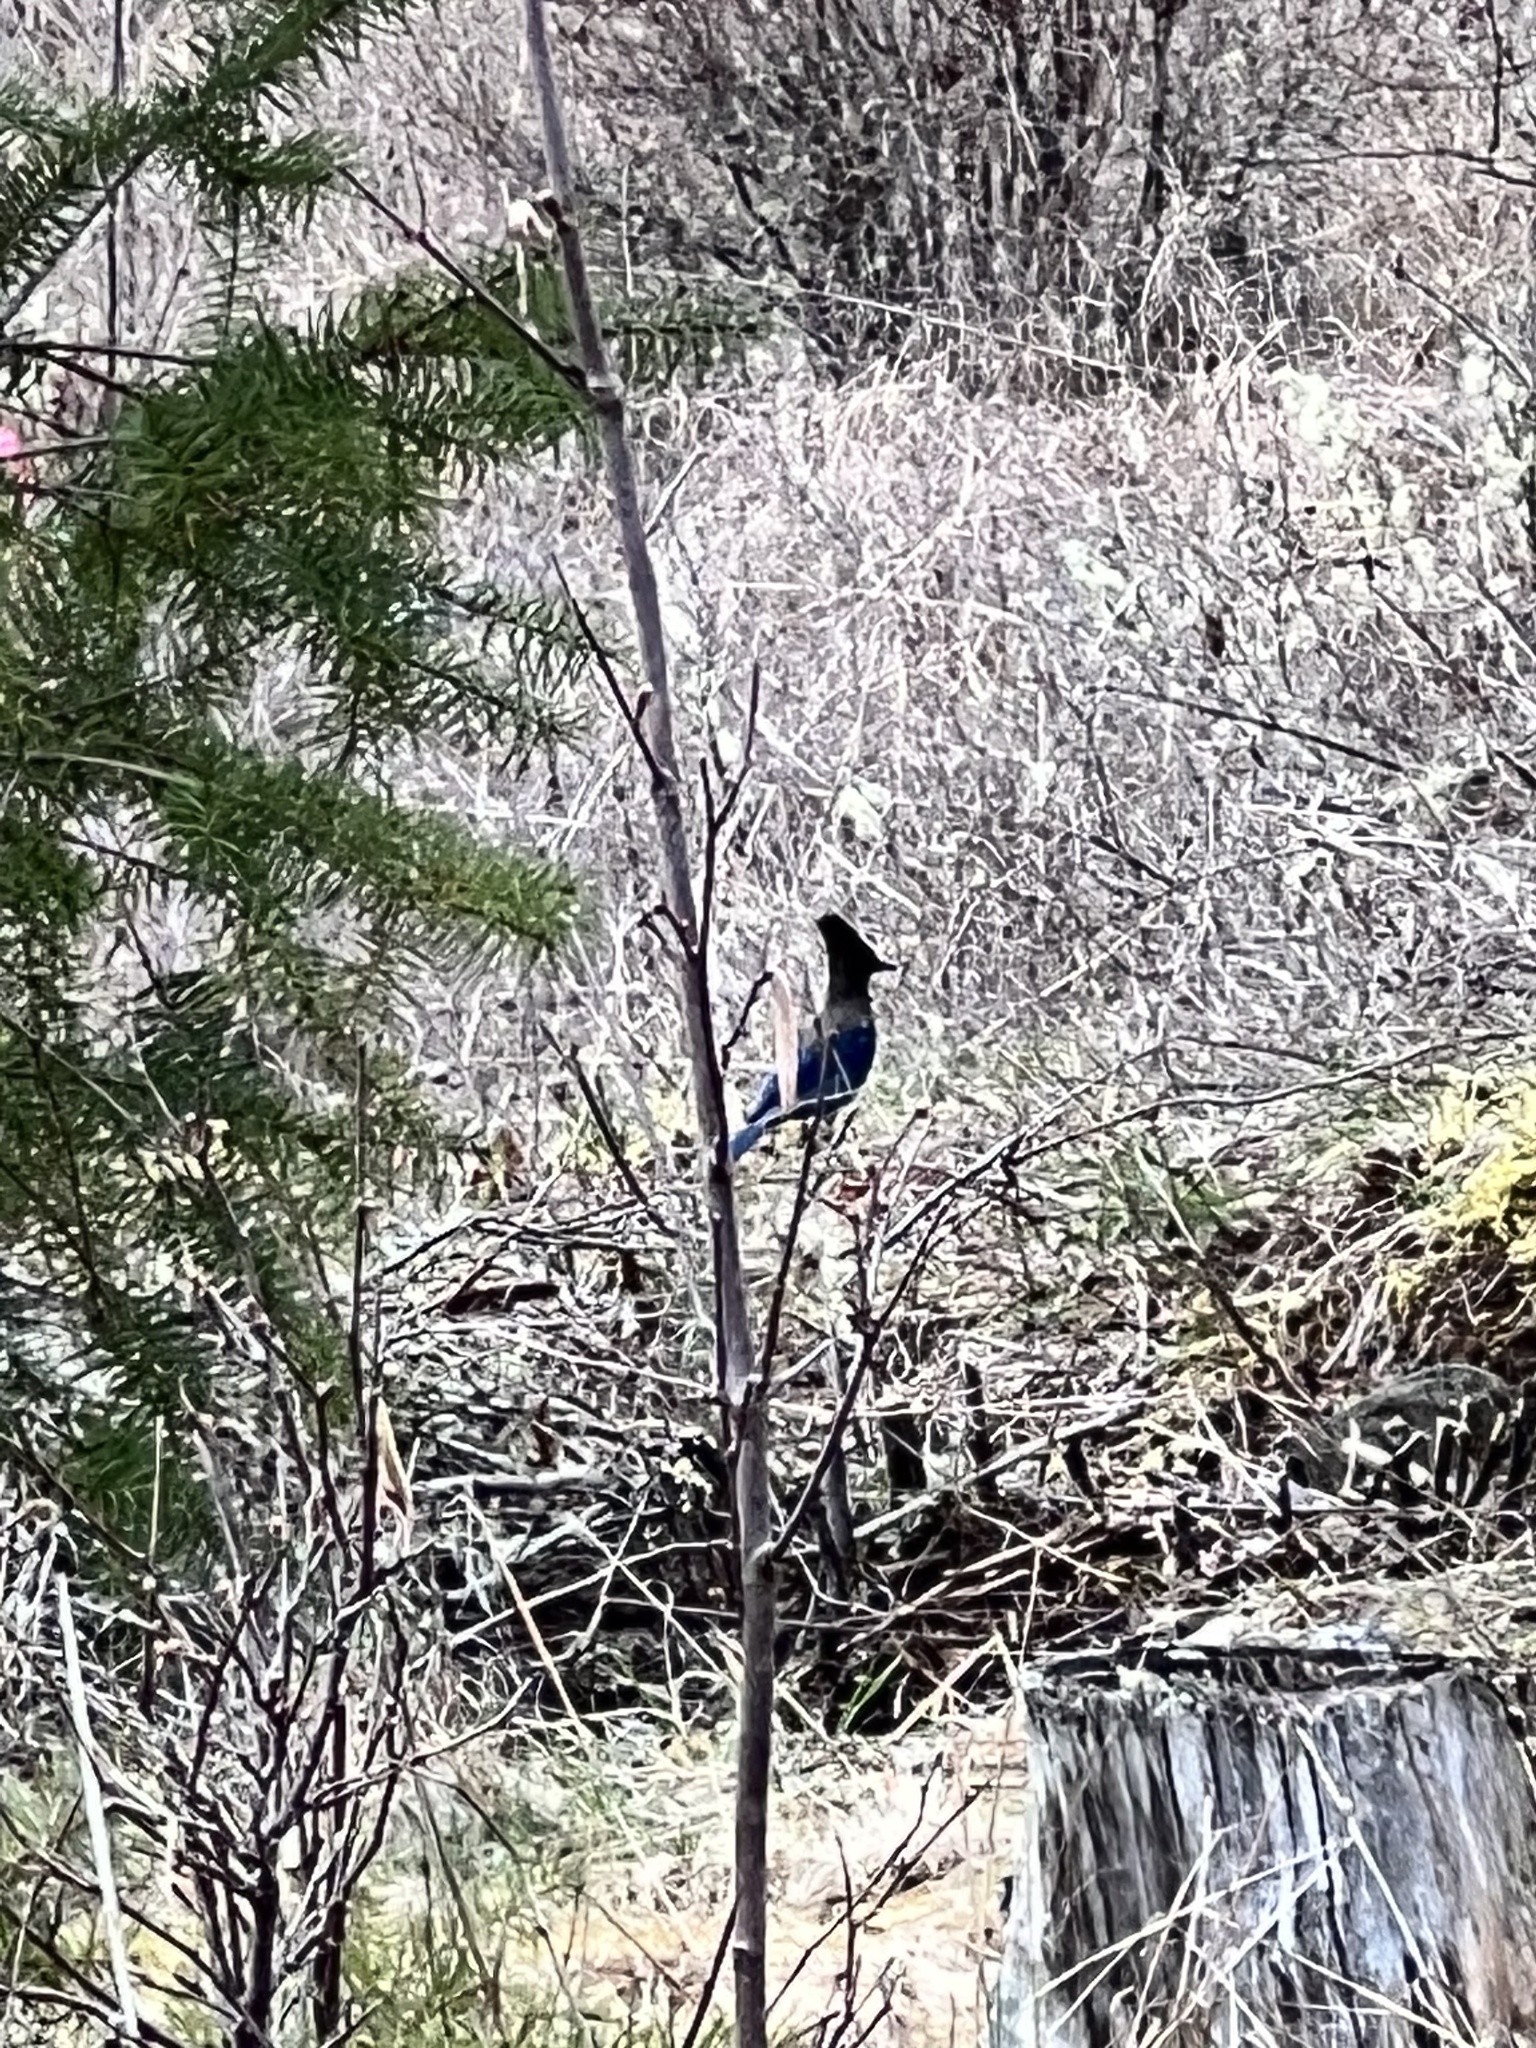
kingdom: Animalia
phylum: Chordata
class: Aves
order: Passeriformes
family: Corvidae
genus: Cyanocitta
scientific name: Cyanocitta stelleri
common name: Steller's jay
